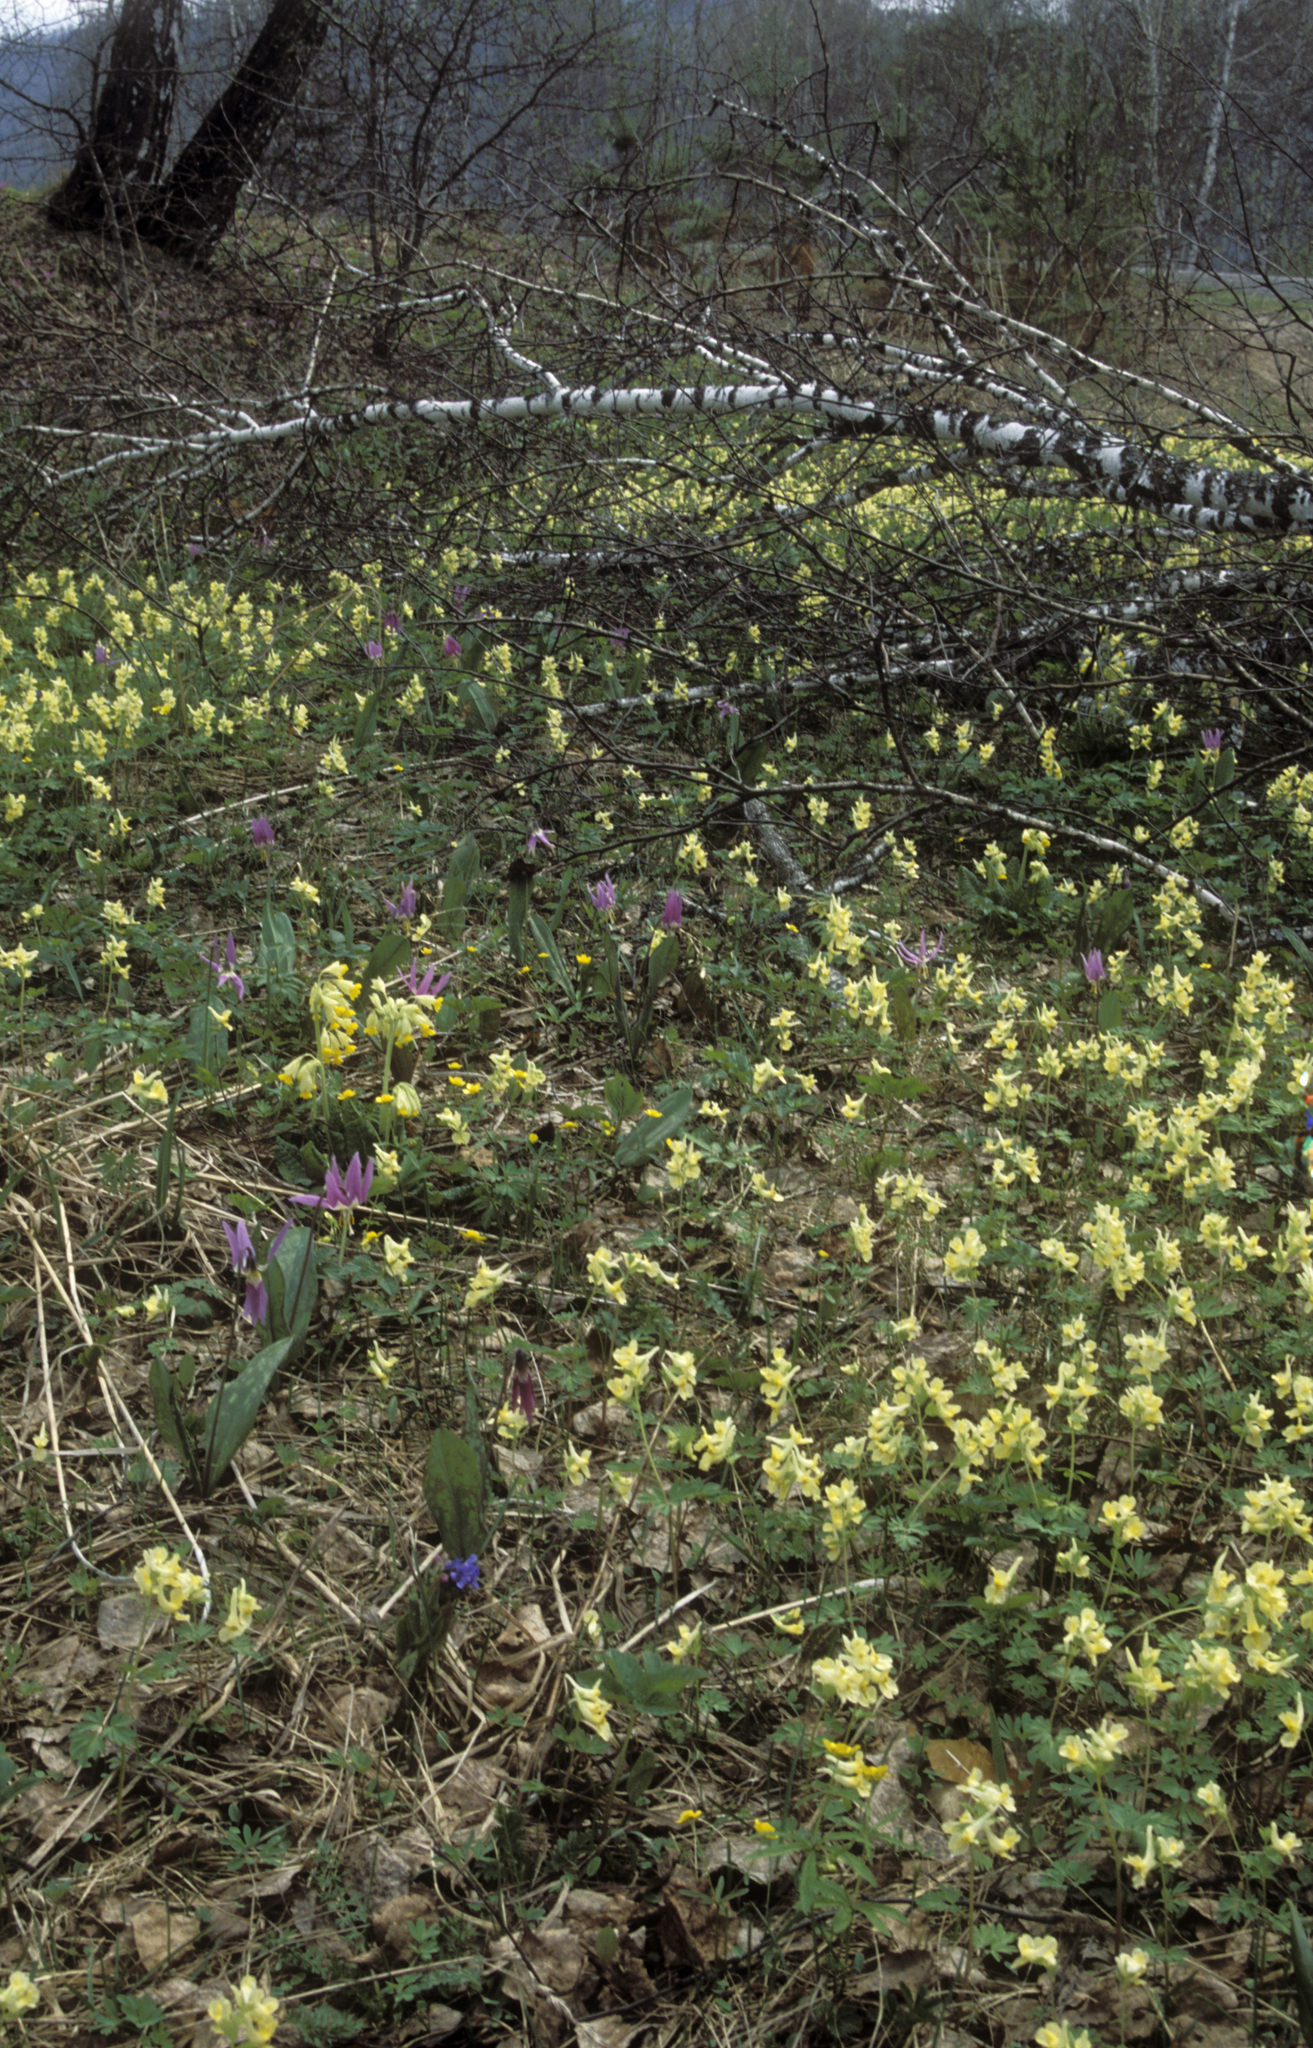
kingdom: Plantae
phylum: Tracheophyta
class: Magnoliopsida
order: Ranunculales
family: Papaveraceae
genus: Corydalis
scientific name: Corydalis bracteata
